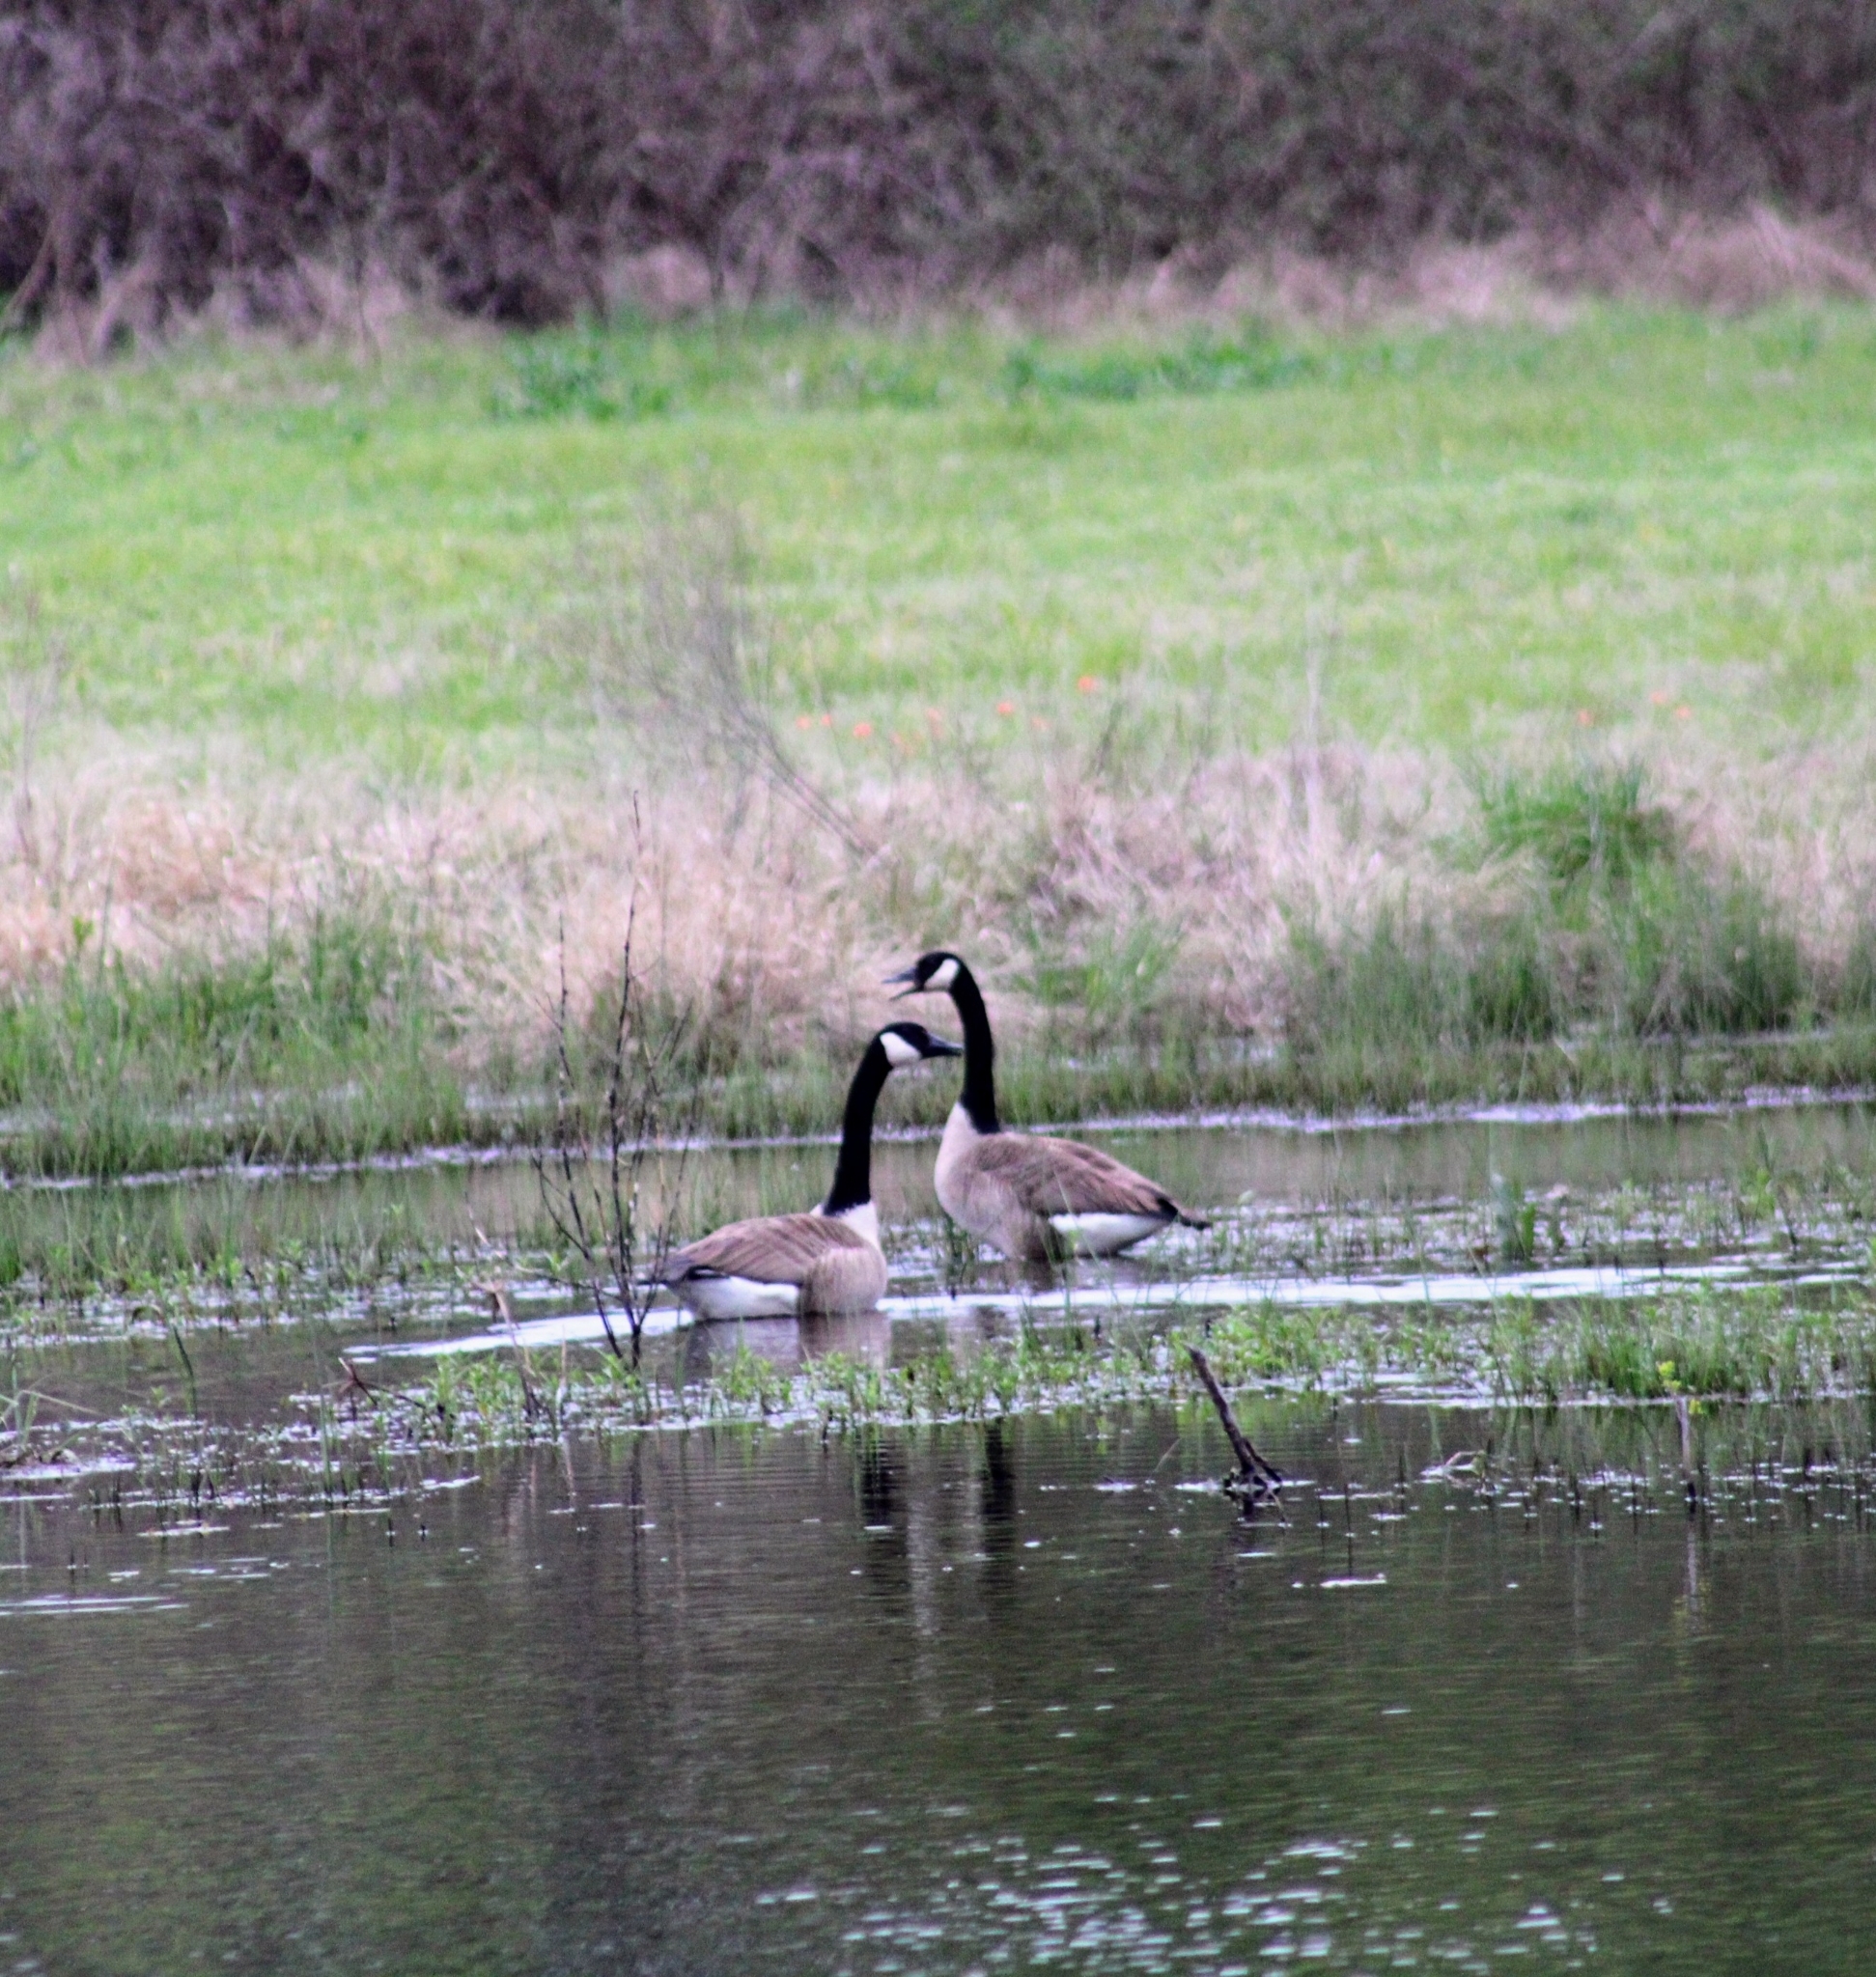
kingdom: Animalia
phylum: Chordata
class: Aves
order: Anseriformes
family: Anatidae
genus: Branta
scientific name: Branta canadensis
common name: Canada goose
